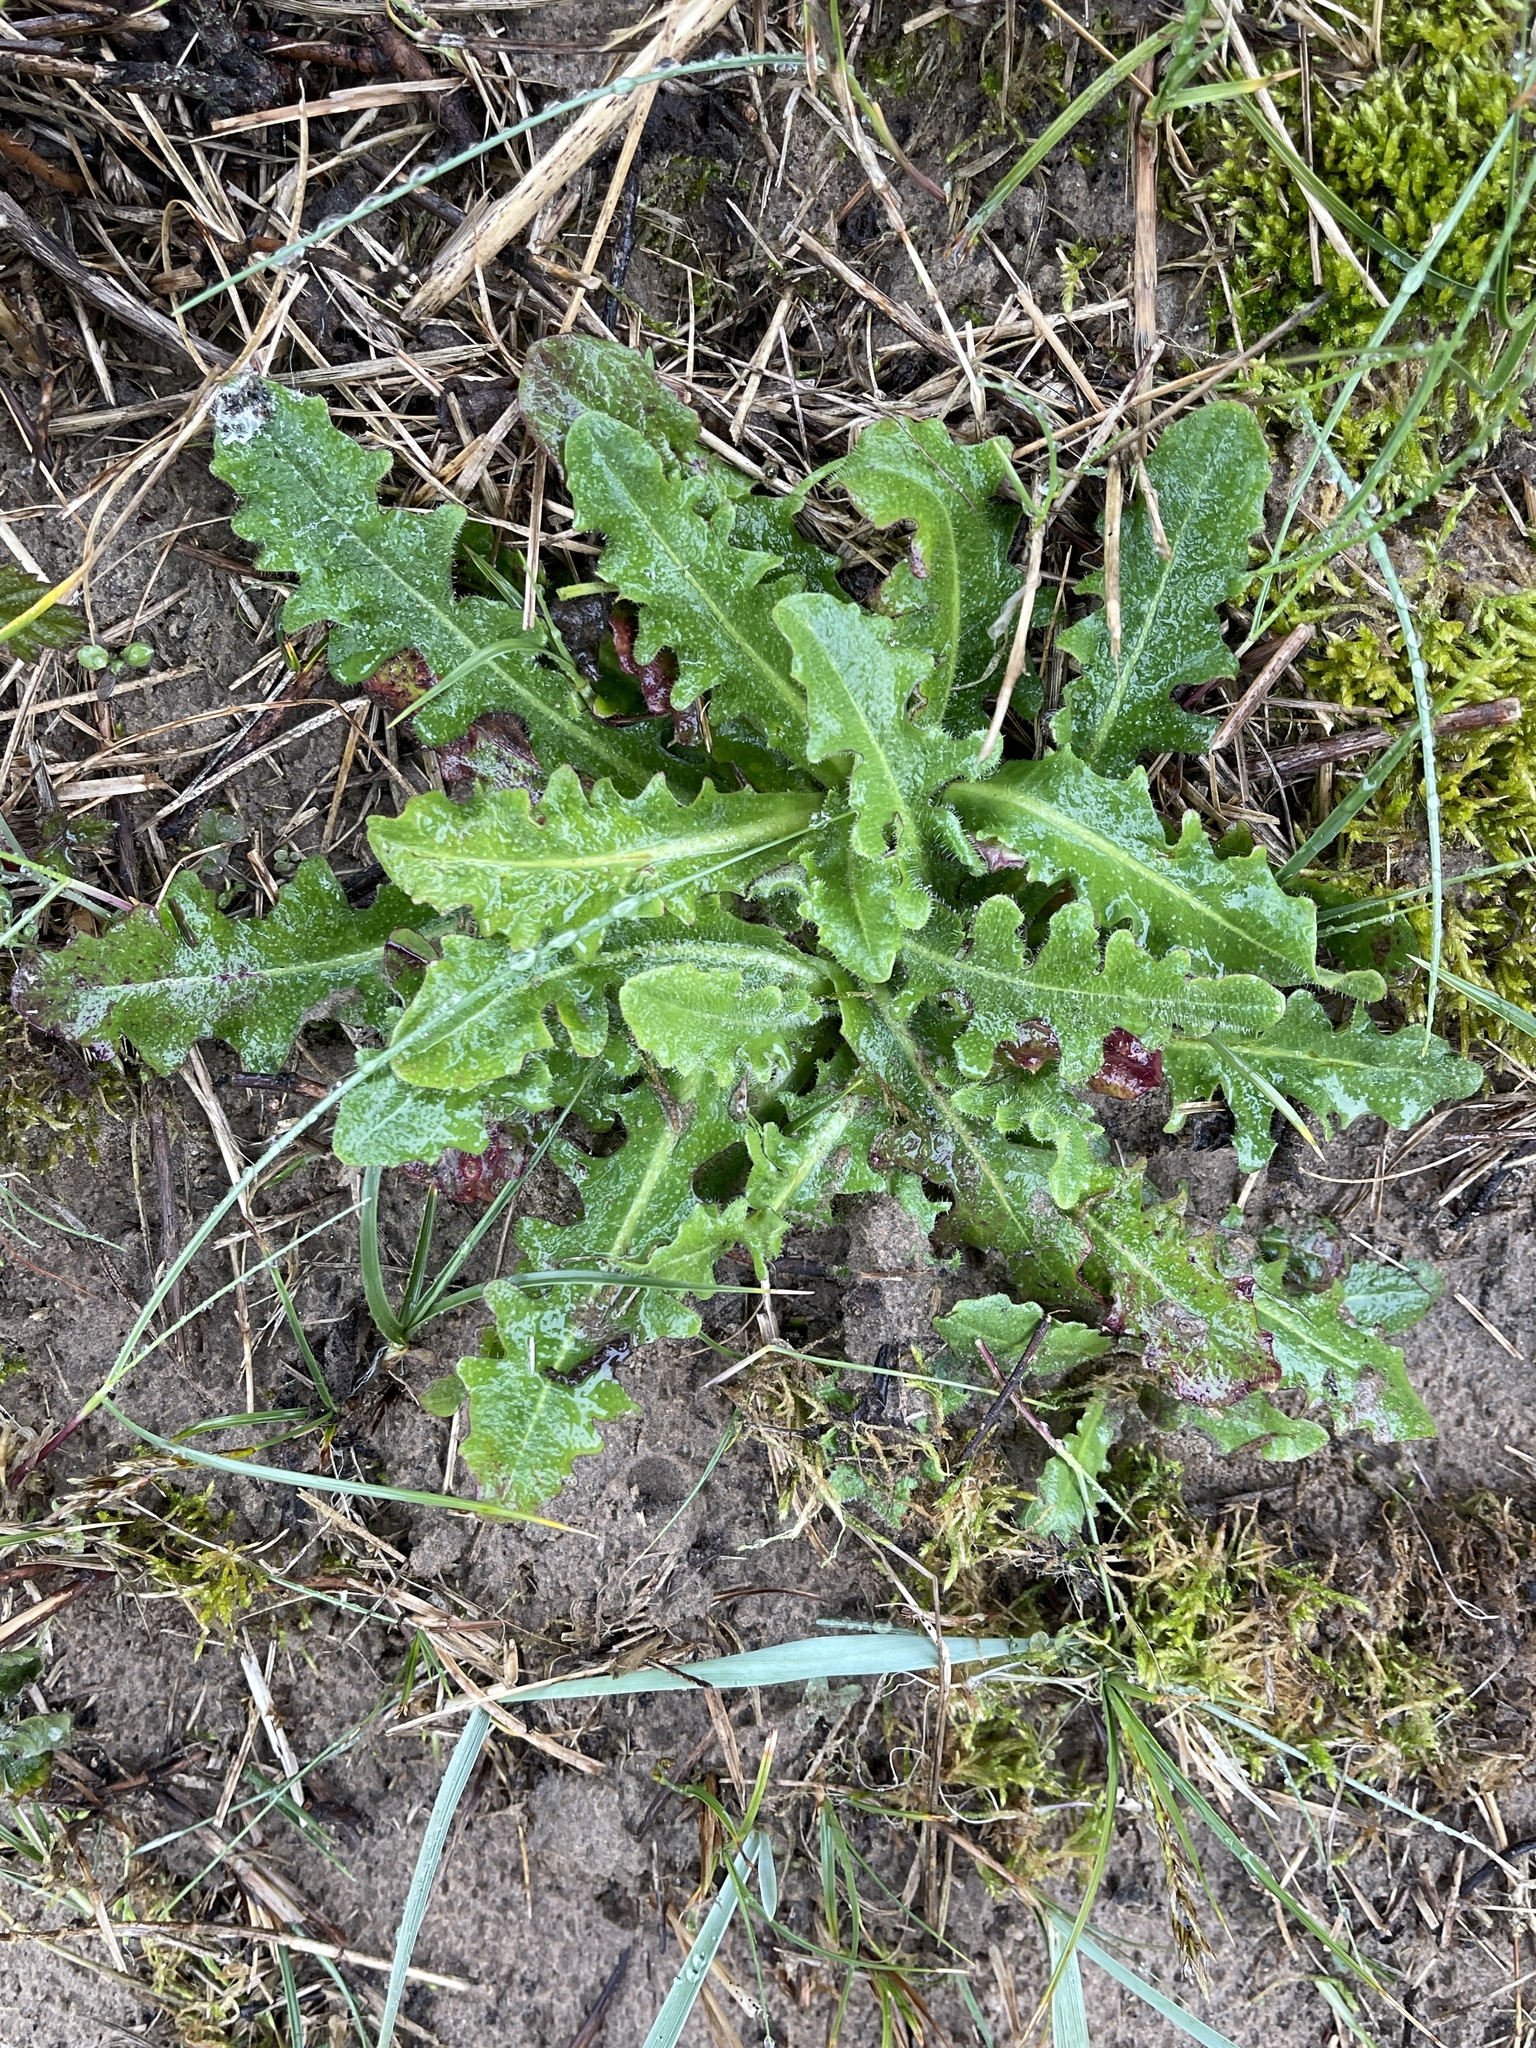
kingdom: Plantae
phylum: Tracheophyta
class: Magnoliopsida
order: Asterales
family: Asteraceae
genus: Hypochaeris
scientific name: Hypochaeris radicata
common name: Flatweed
